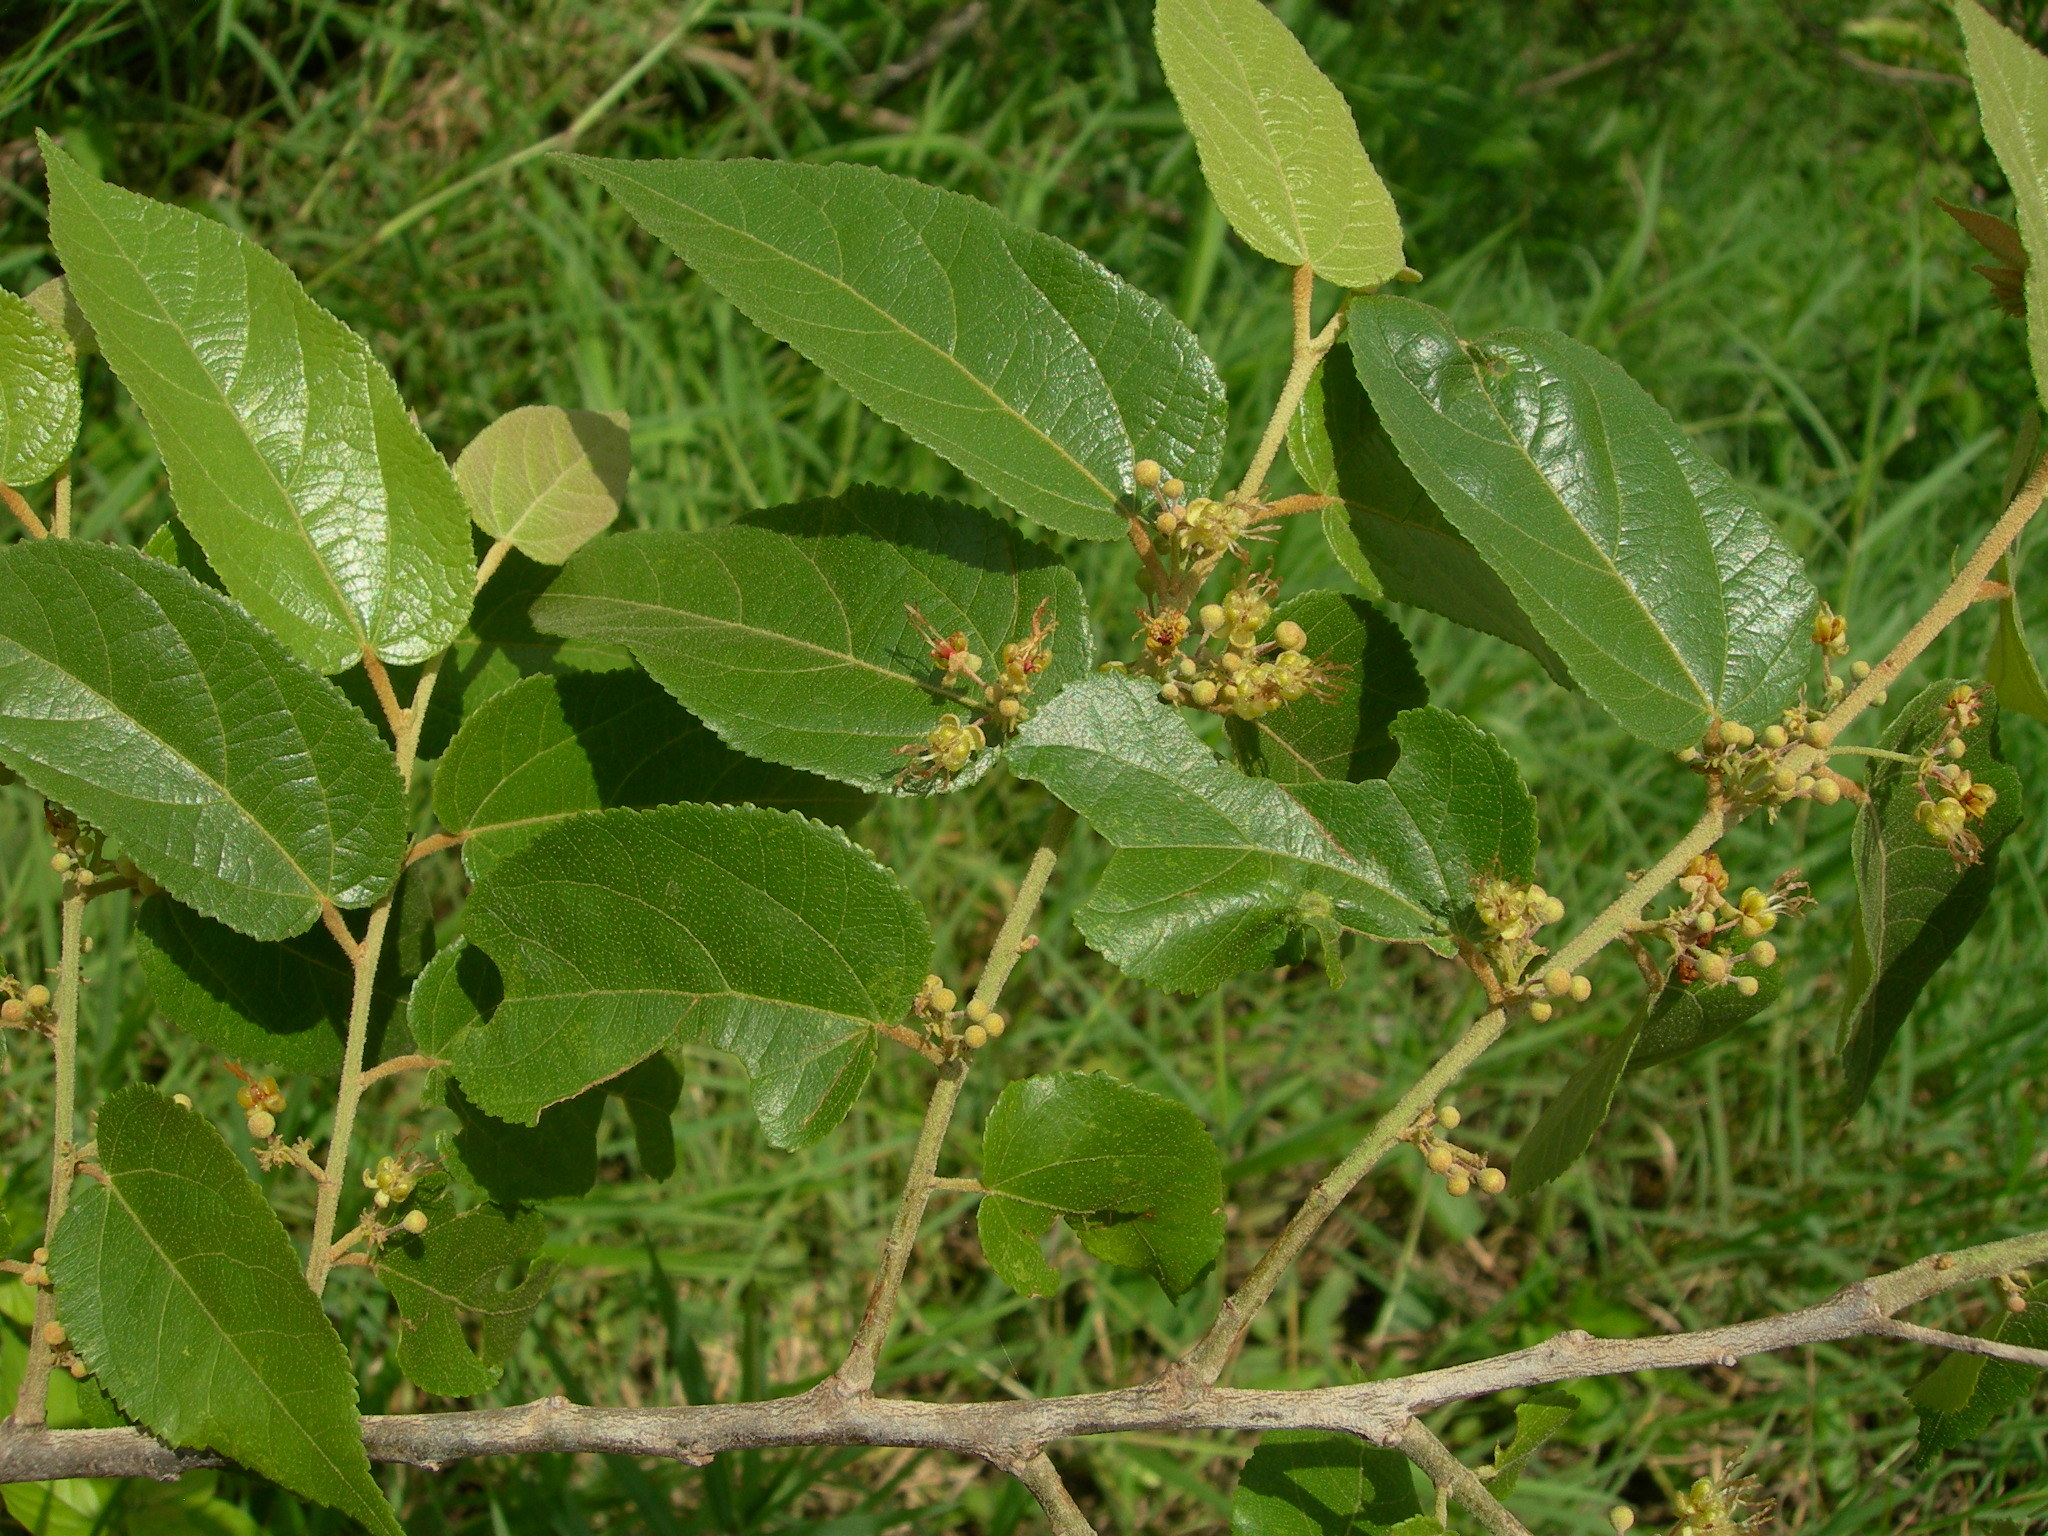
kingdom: Plantae
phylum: Tracheophyta
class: Magnoliopsida
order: Malvales
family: Malvaceae
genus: Guazuma
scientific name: Guazuma ulmifolia
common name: Bastard-cedar
